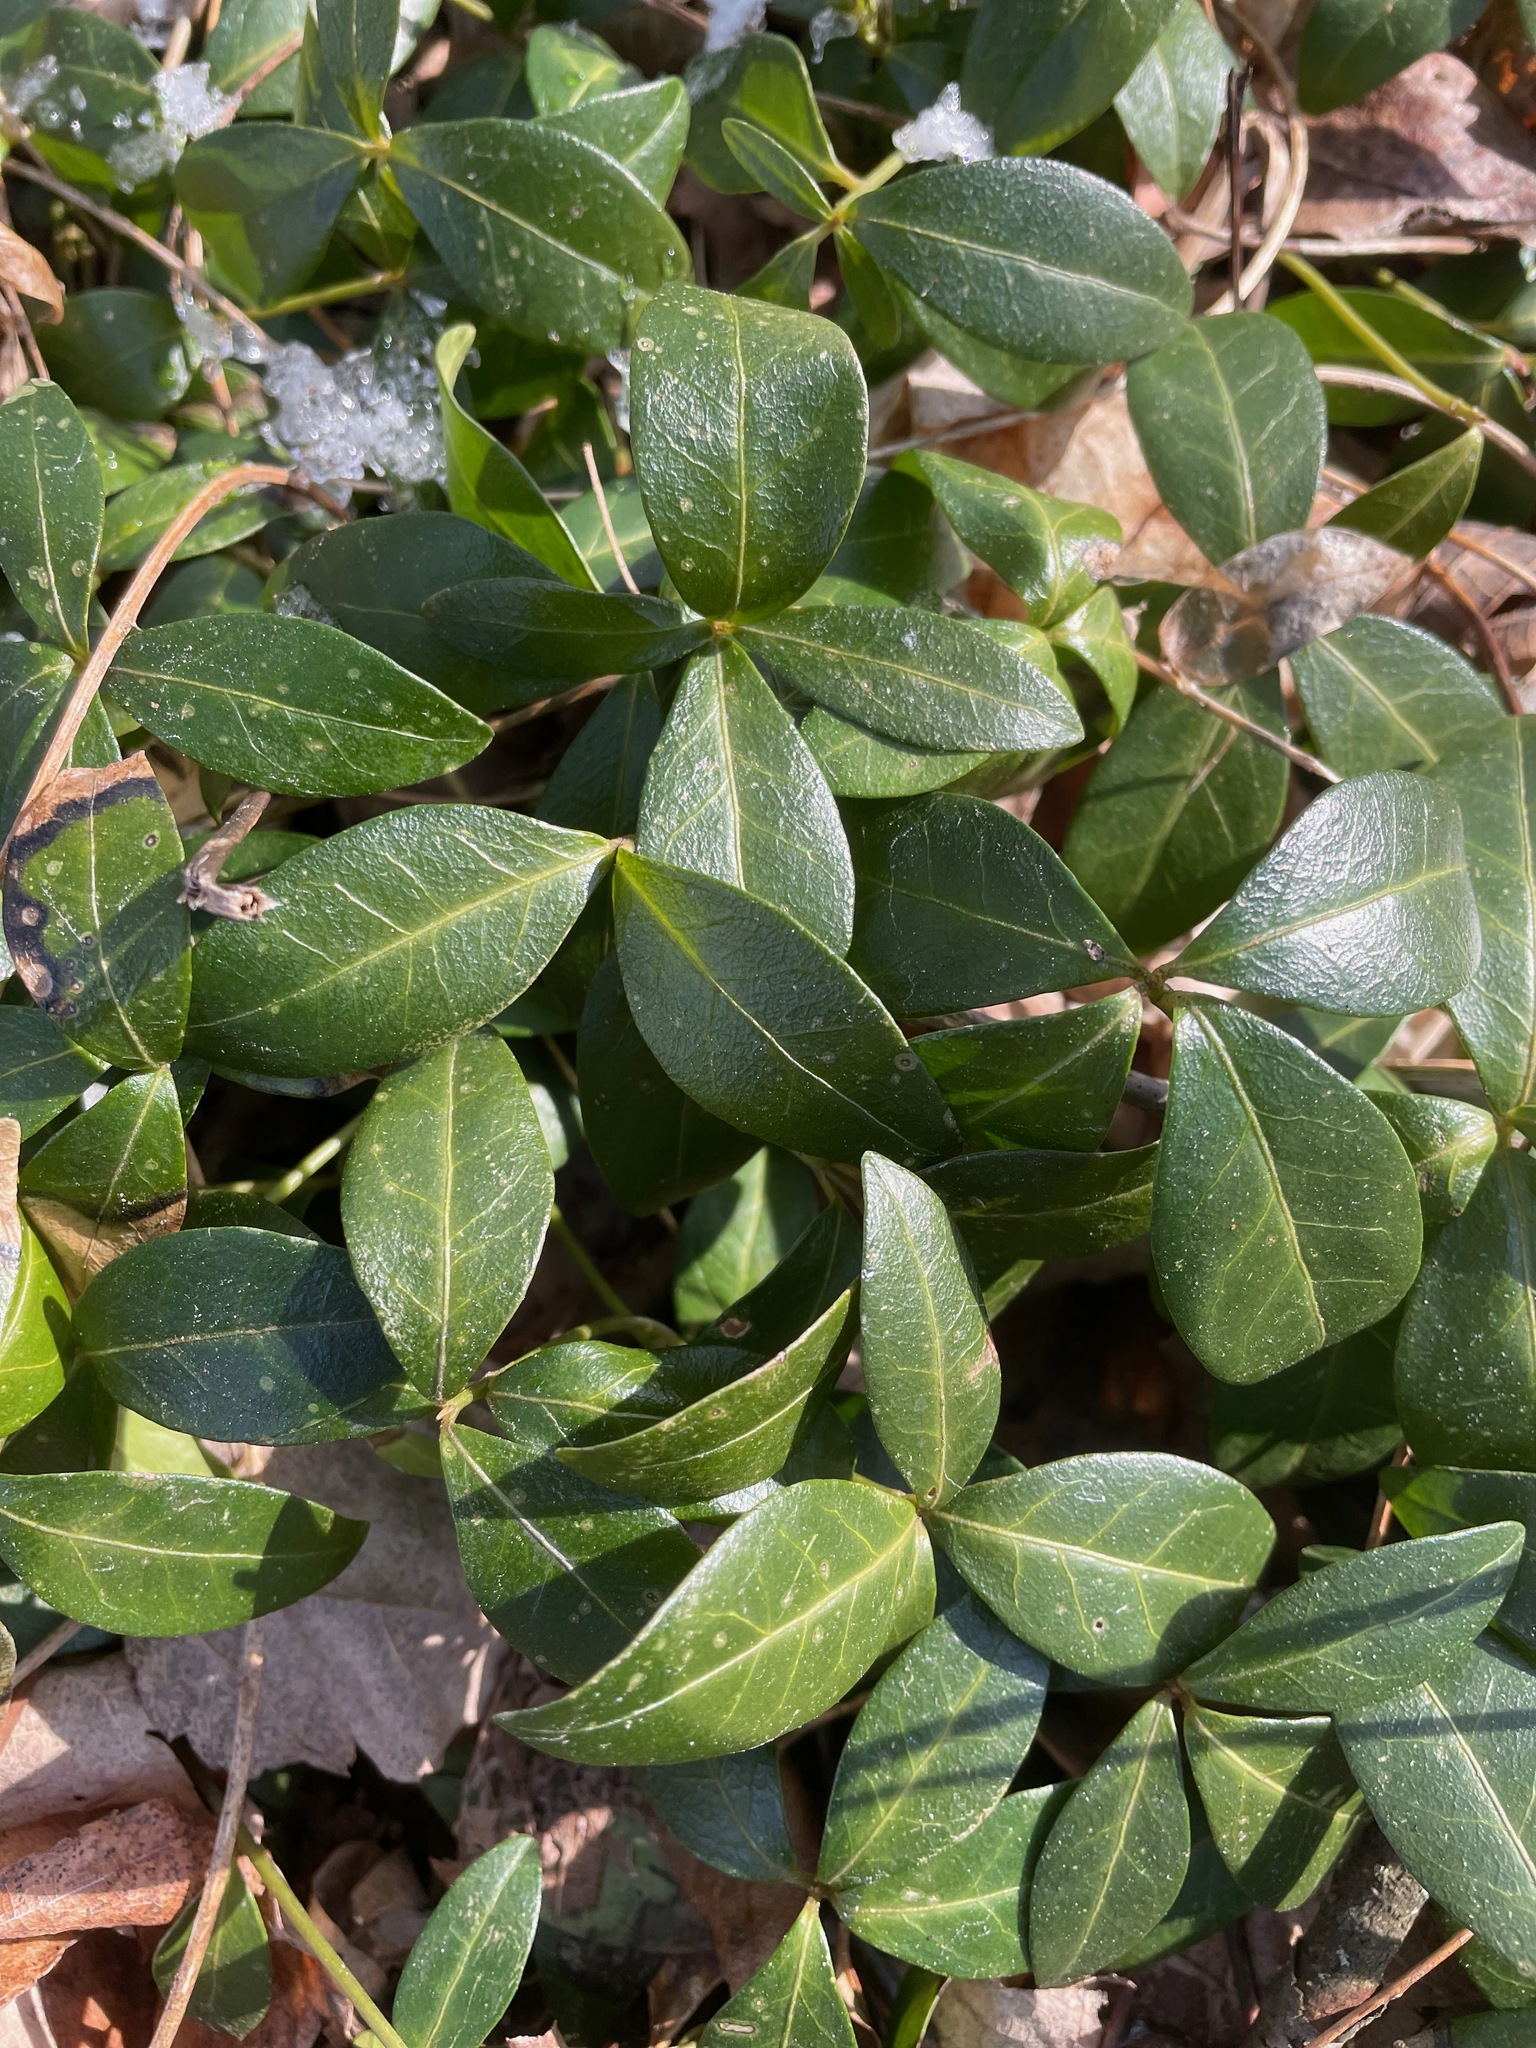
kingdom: Plantae
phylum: Tracheophyta
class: Magnoliopsida
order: Gentianales
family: Apocynaceae
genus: Vinca
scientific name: Vinca minor
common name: Lesser periwinkle
